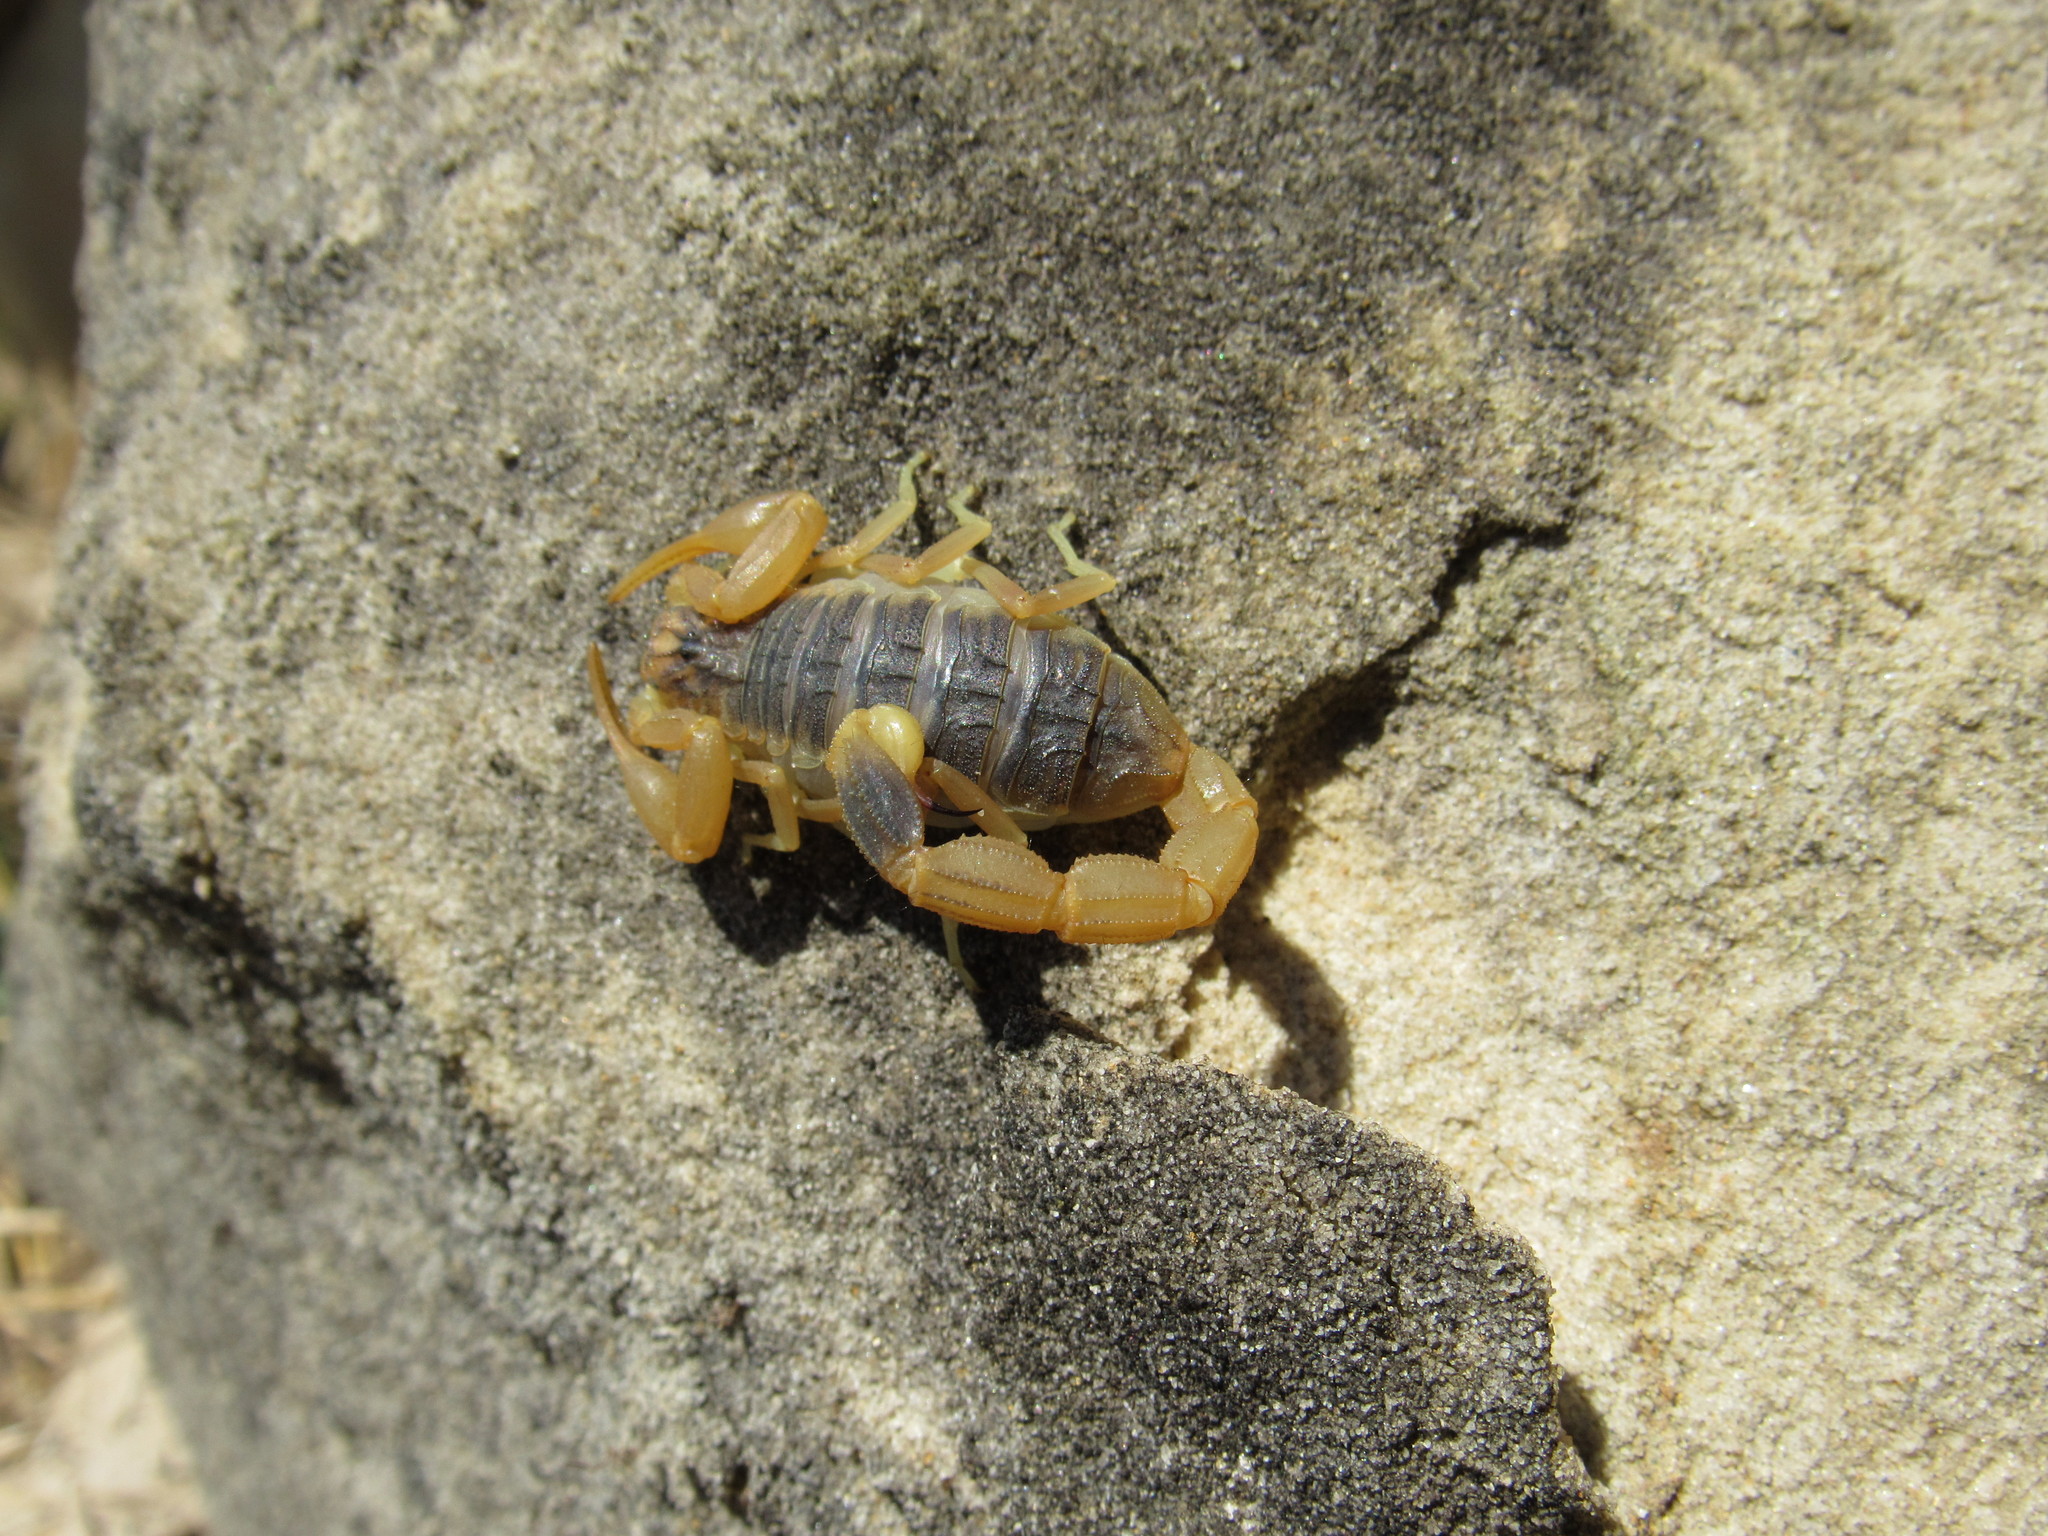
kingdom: Animalia
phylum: Arthropoda
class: Arachnida
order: Scorpiones
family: Buthidae
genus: Olivierus
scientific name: Olivierus caucasicus
